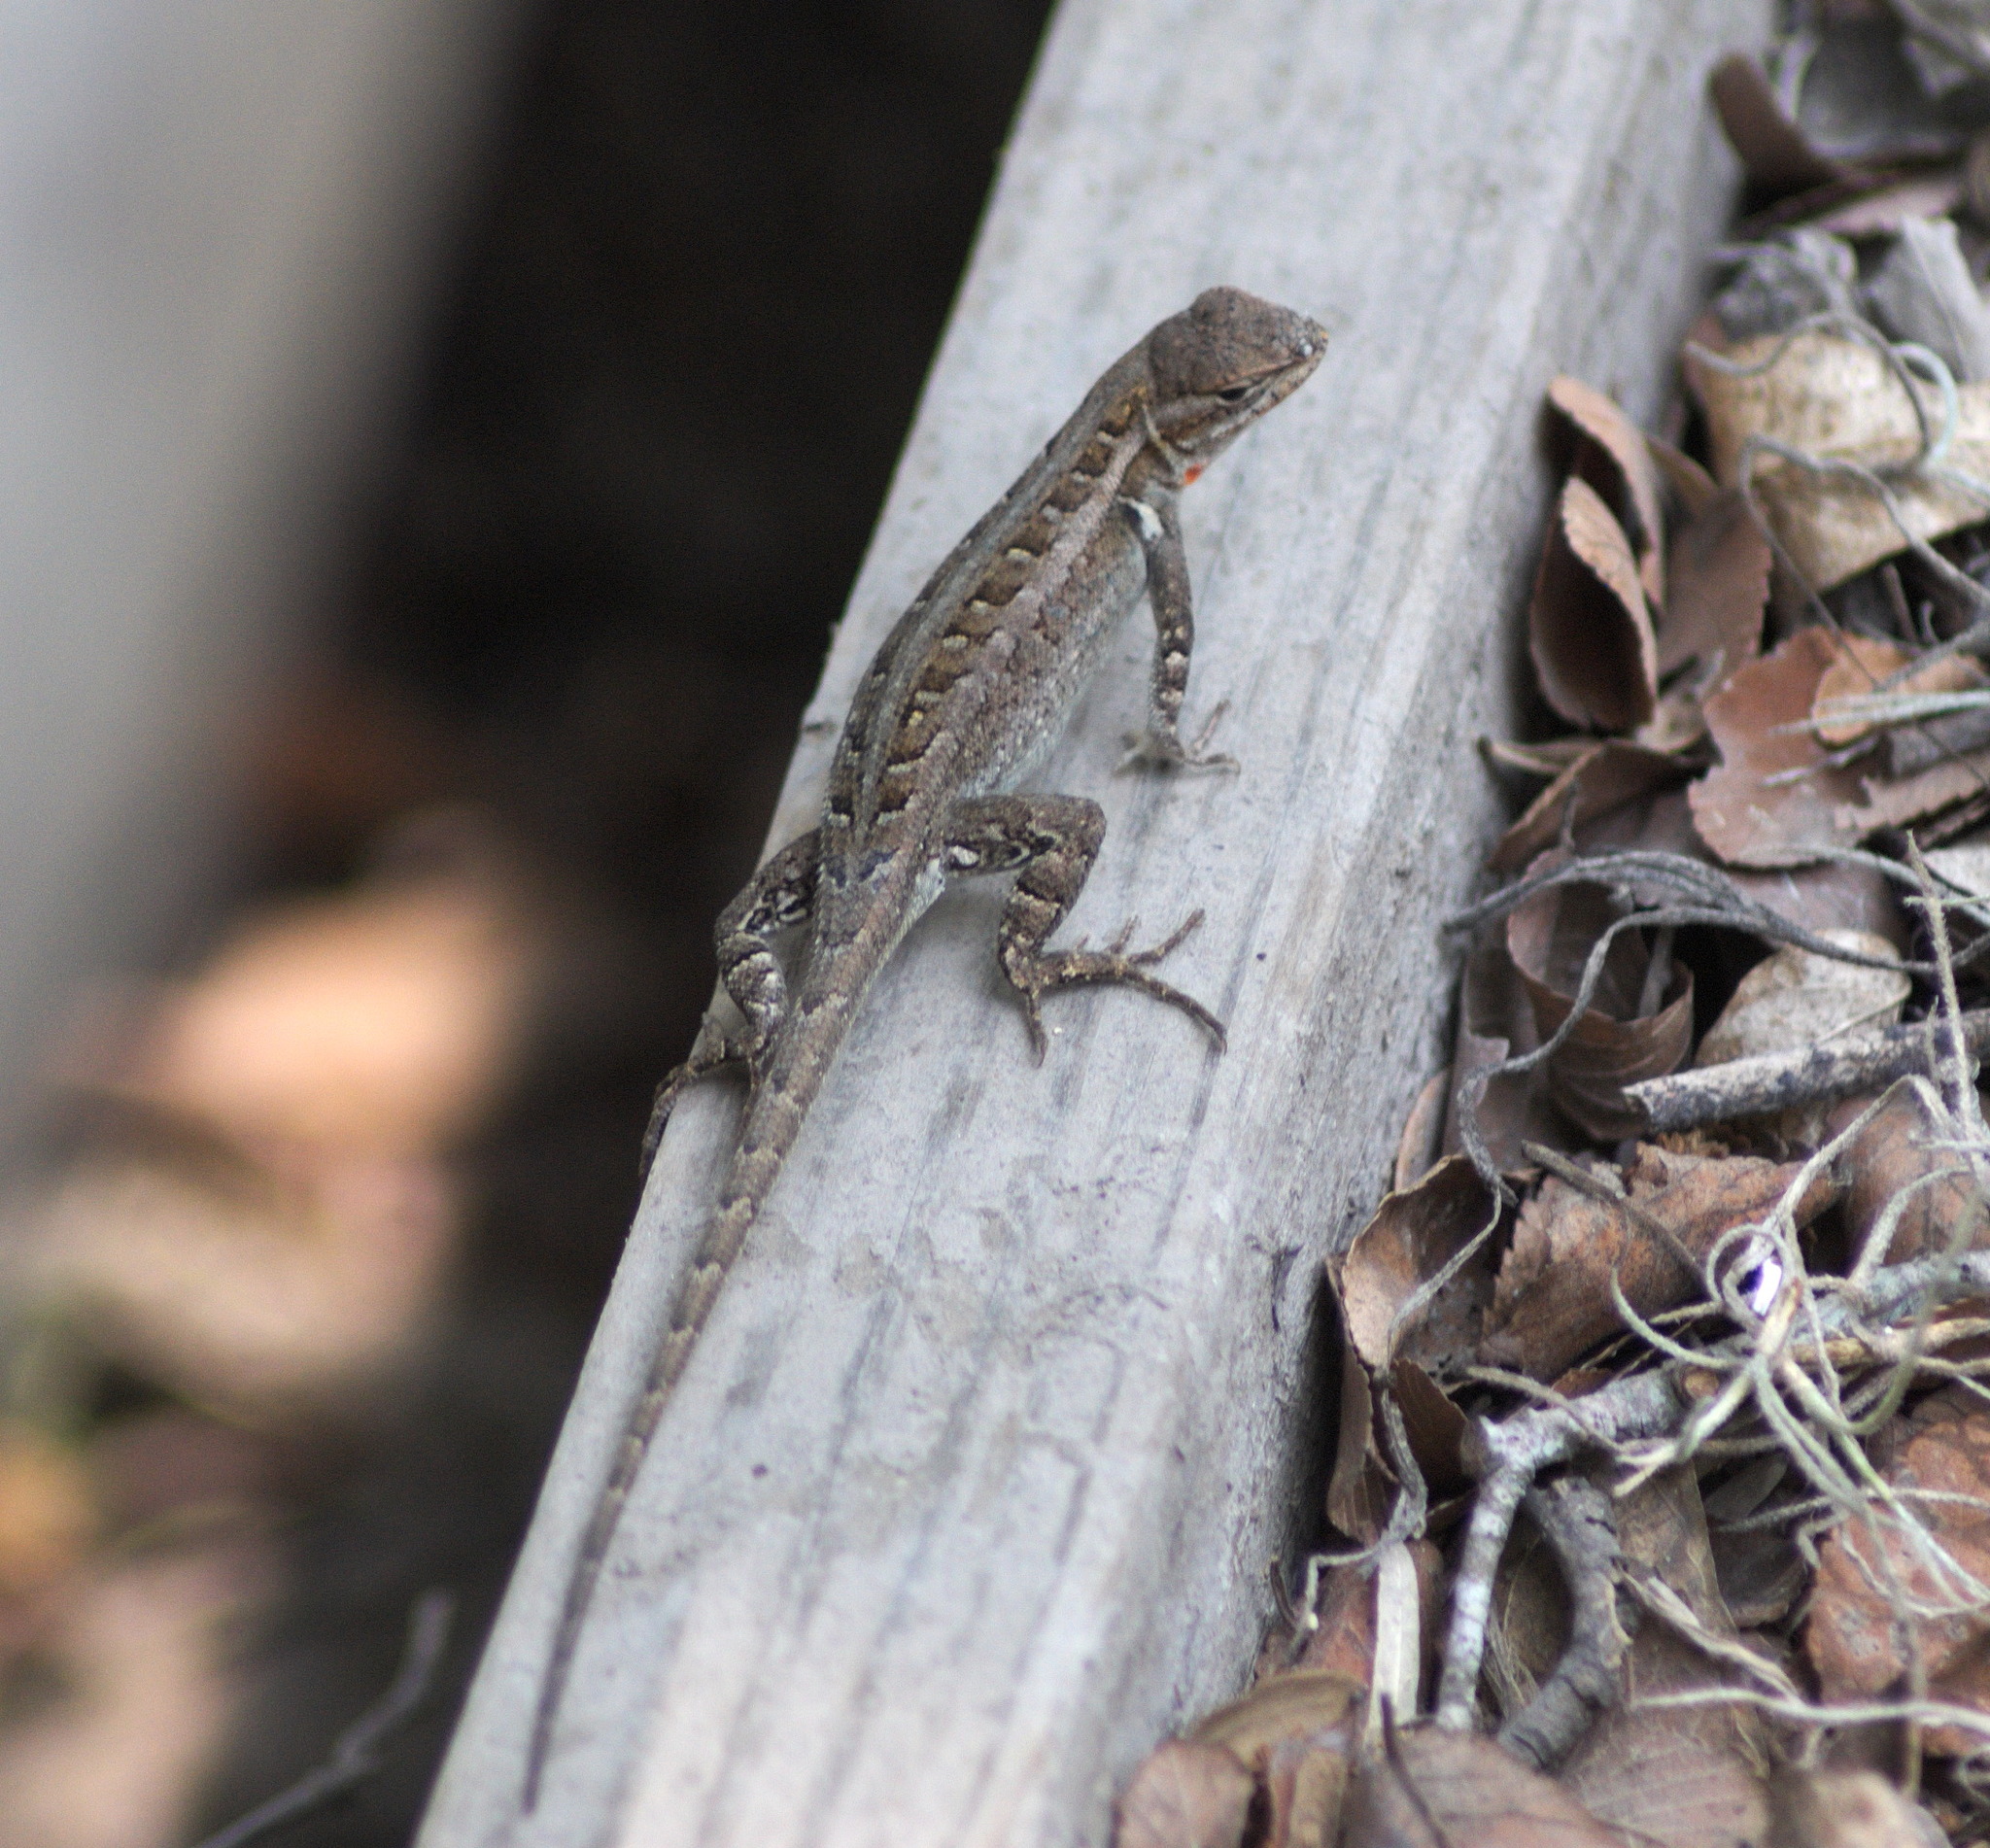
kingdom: Animalia
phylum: Chordata
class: Squamata
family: Phrynosomatidae
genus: Sceloporus
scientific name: Sceloporus variabilis
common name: Rosebelly lizard
